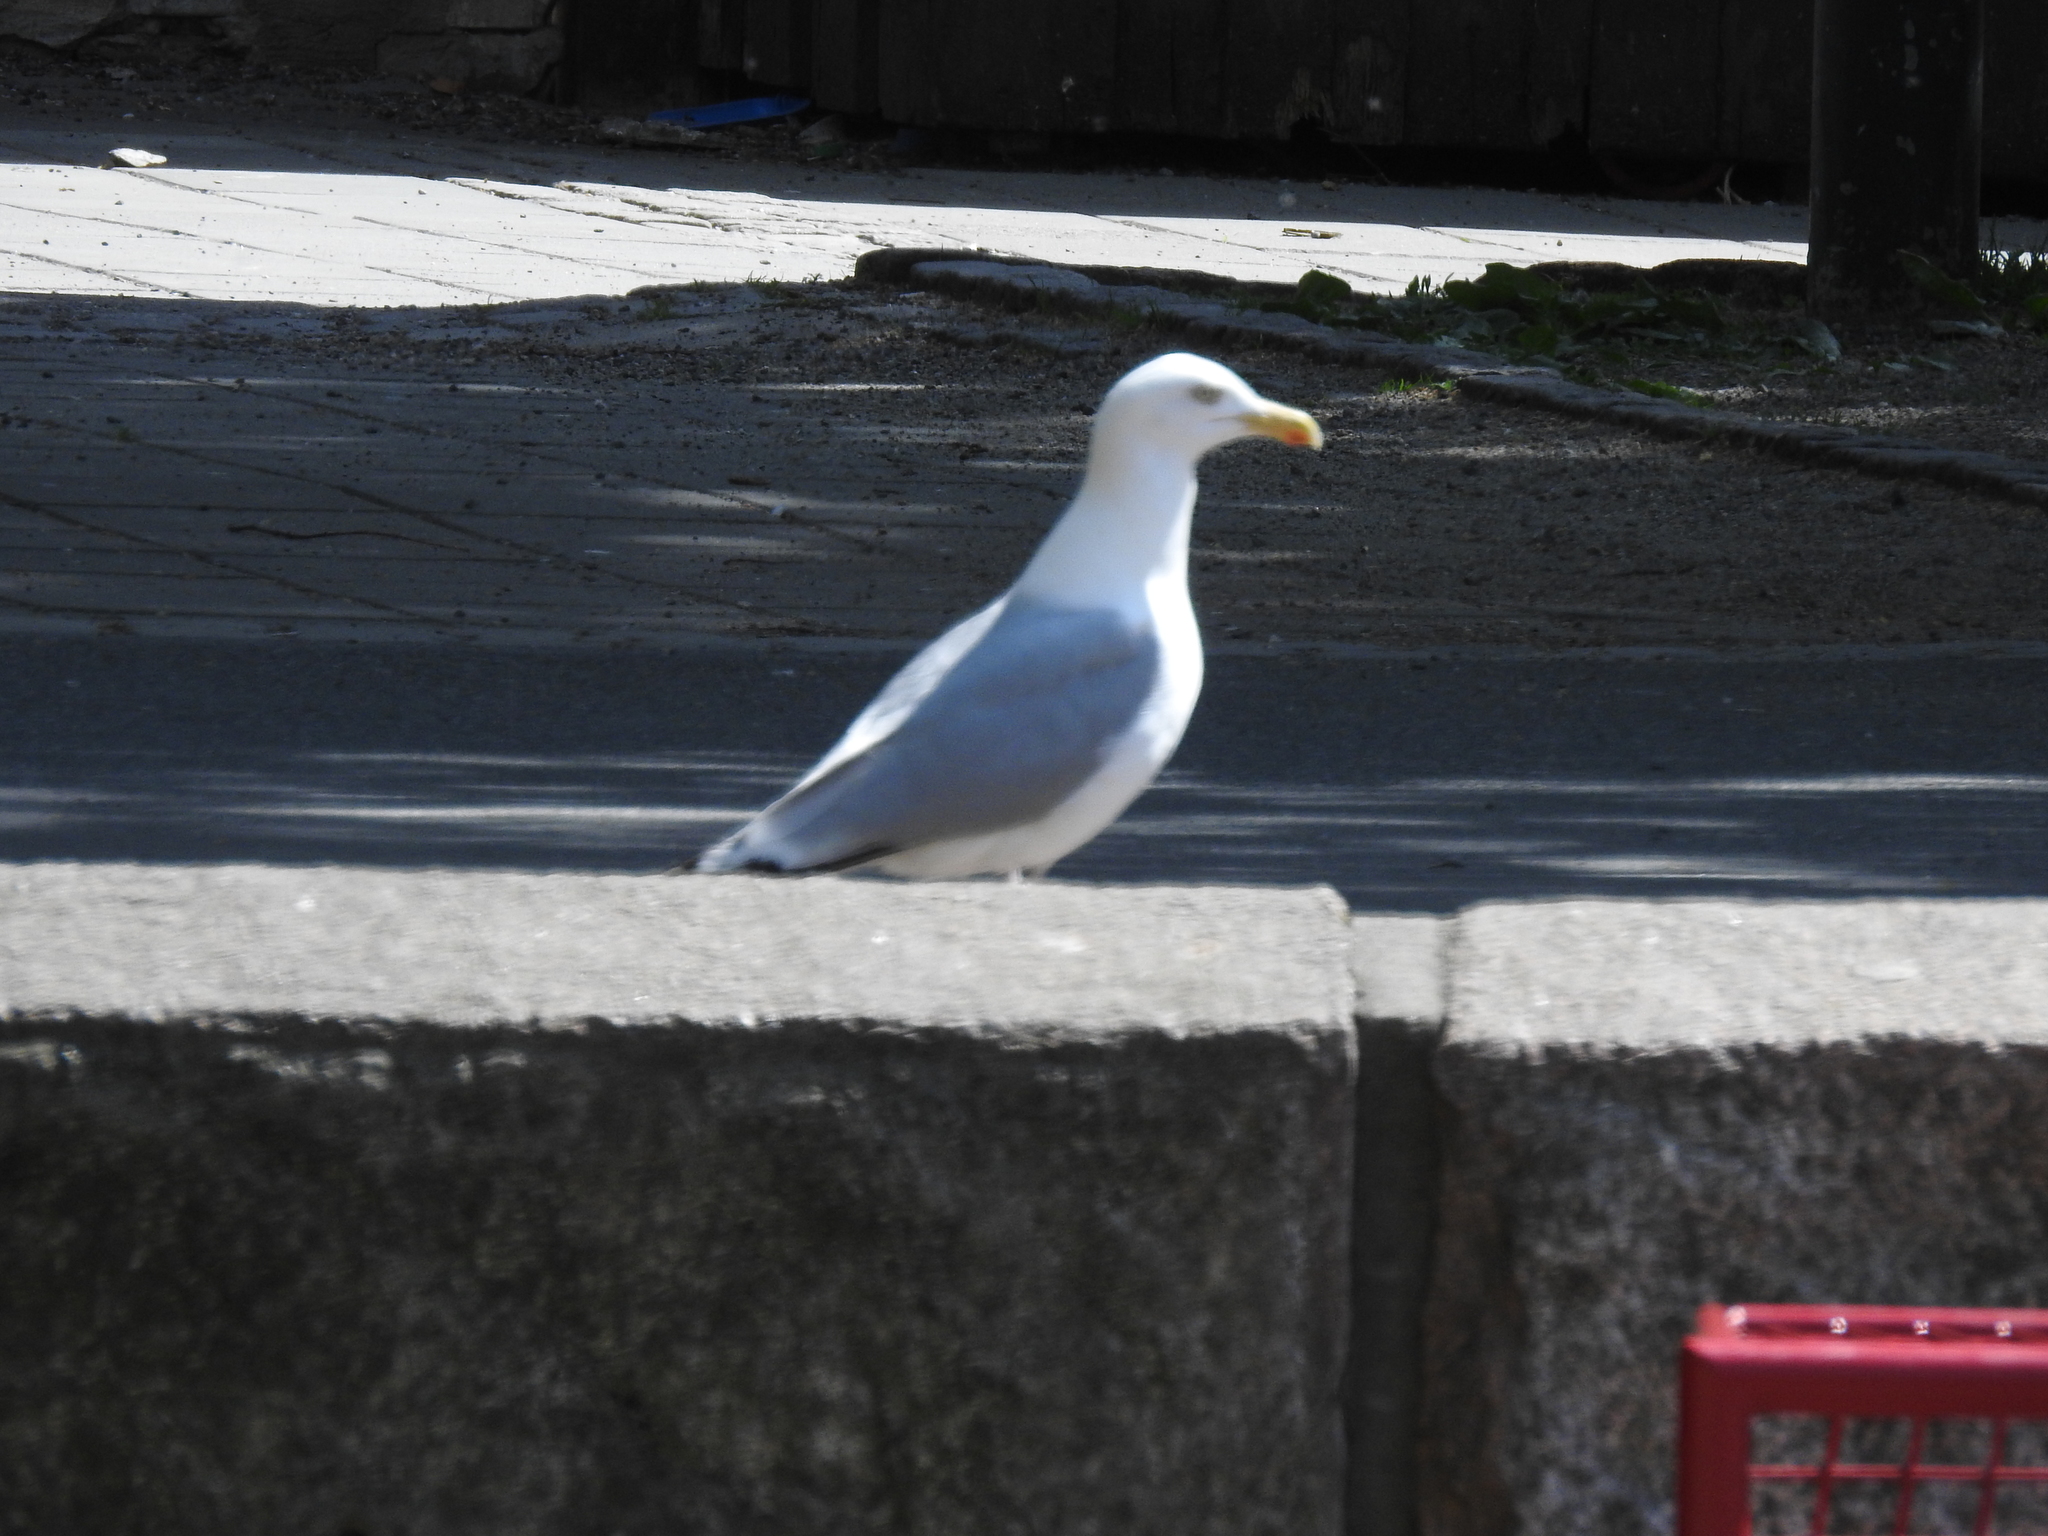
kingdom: Animalia
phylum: Chordata
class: Aves
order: Charadriiformes
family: Laridae
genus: Larus
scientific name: Larus argentatus
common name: Herring gull
